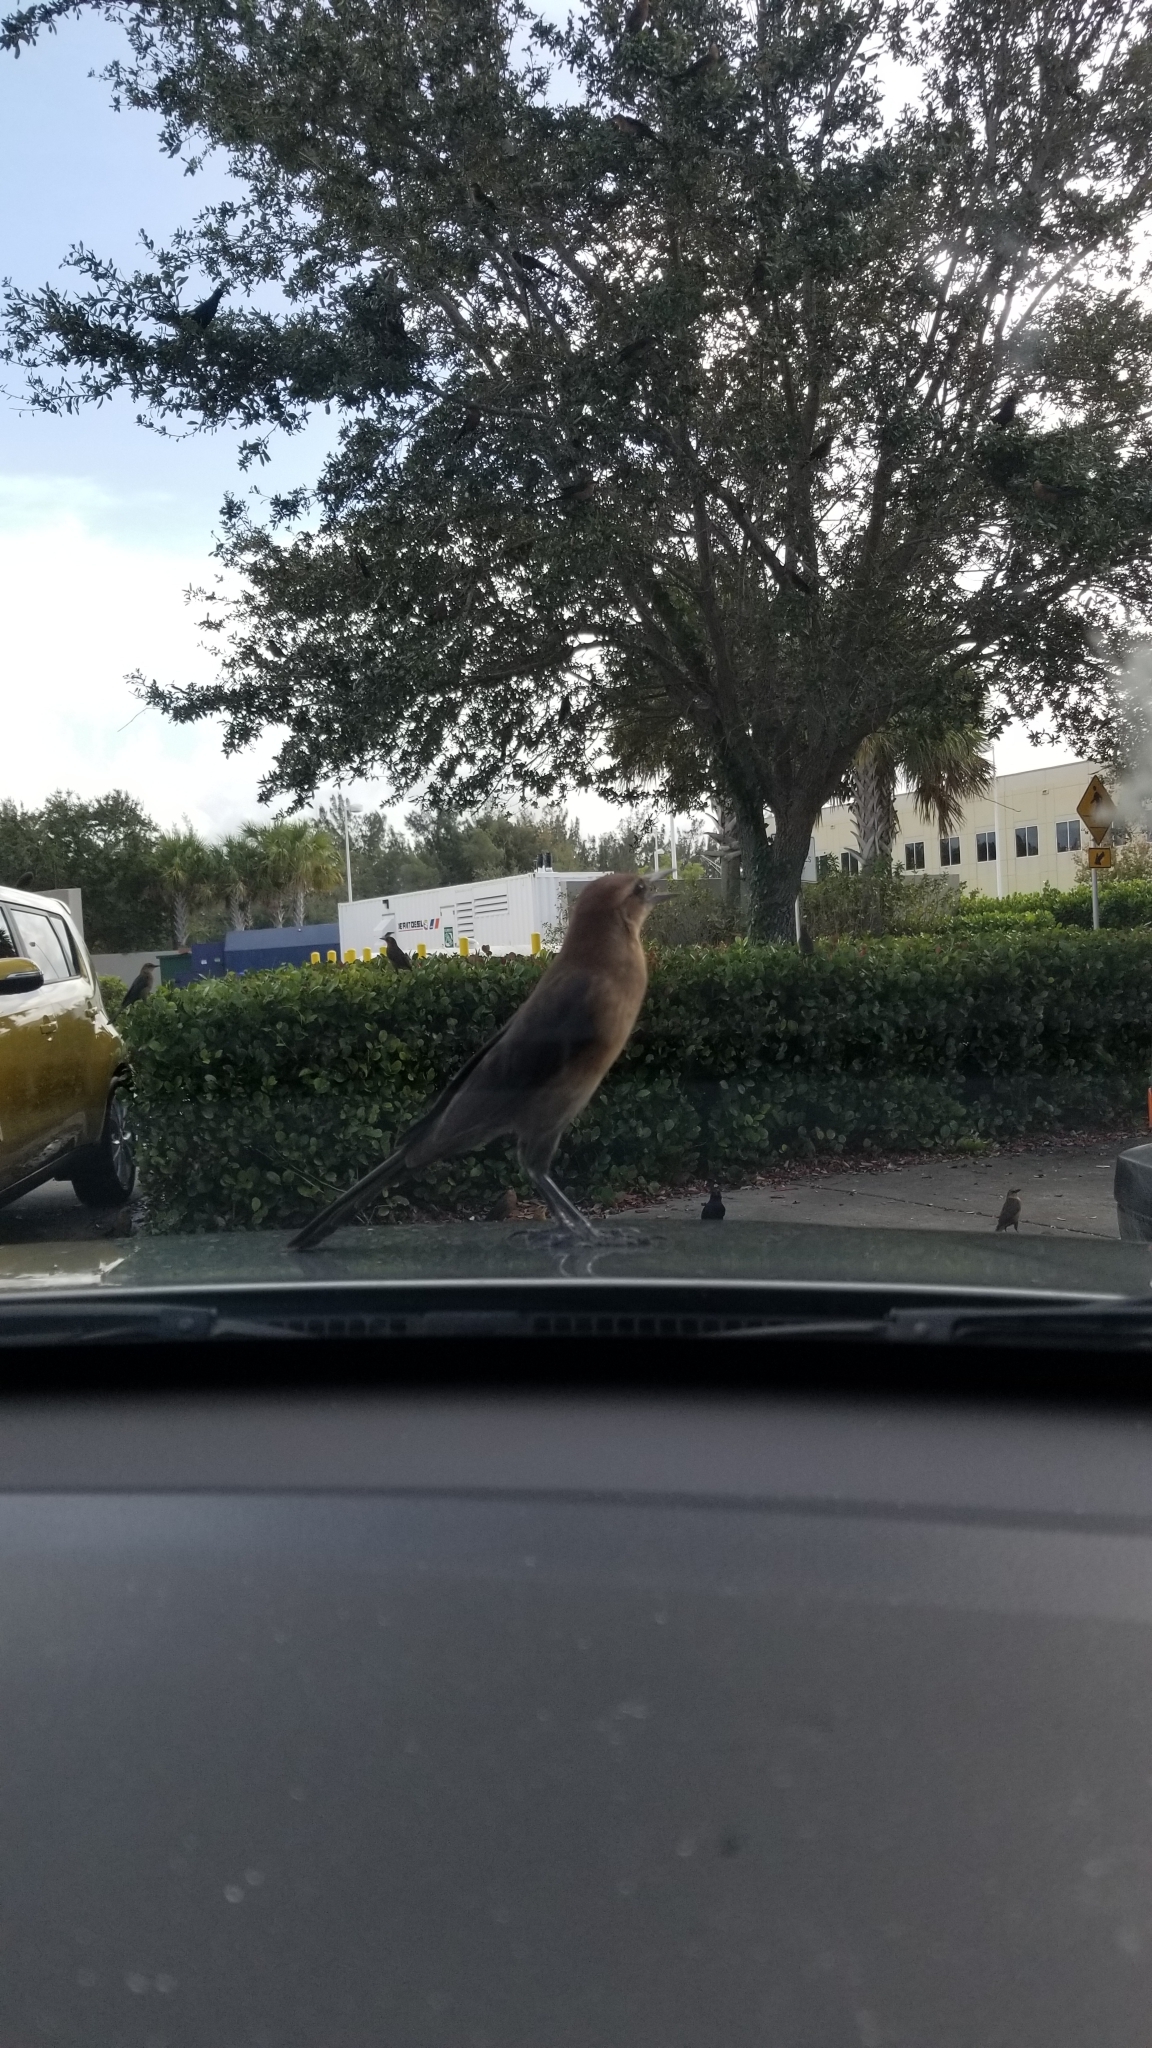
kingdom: Animalia
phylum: Chordata
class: Aves
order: Passeriformes
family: Icteridae
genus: Quiscalus
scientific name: Quiscalus major
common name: Boat-tailed grackle
